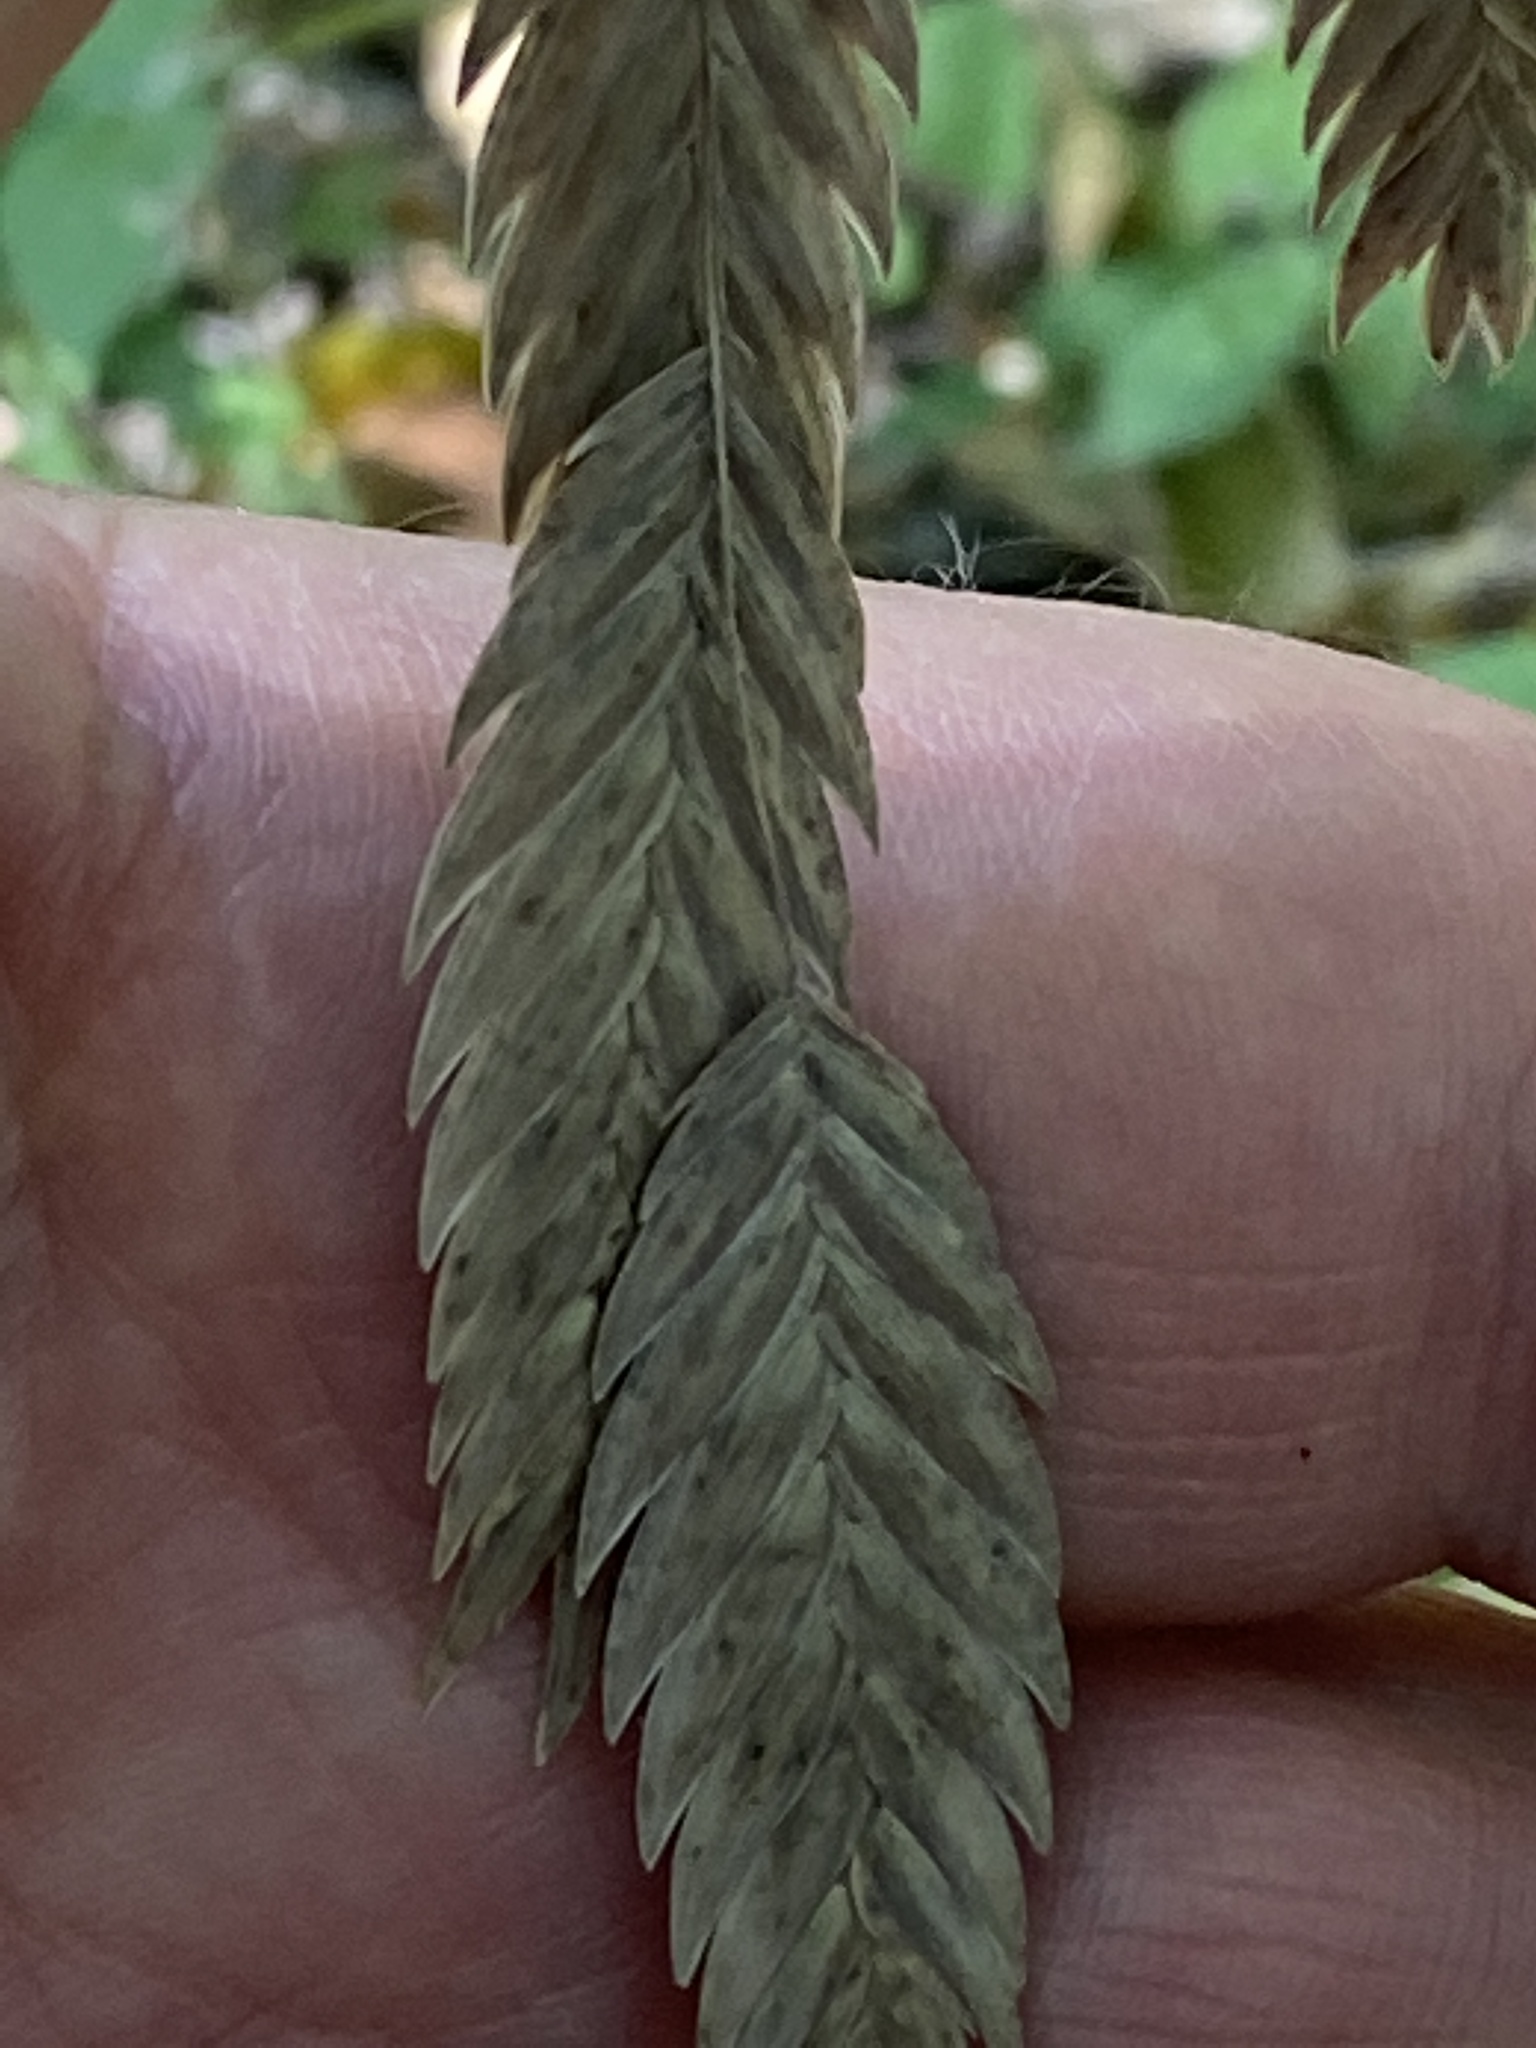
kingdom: Plantae
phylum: Tracheophyta
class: Liliopsida
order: Poales
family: Poaceae
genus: Chasmanthium
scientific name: Chasmanthium latifolium
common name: Broad-leaved chasmanthium
